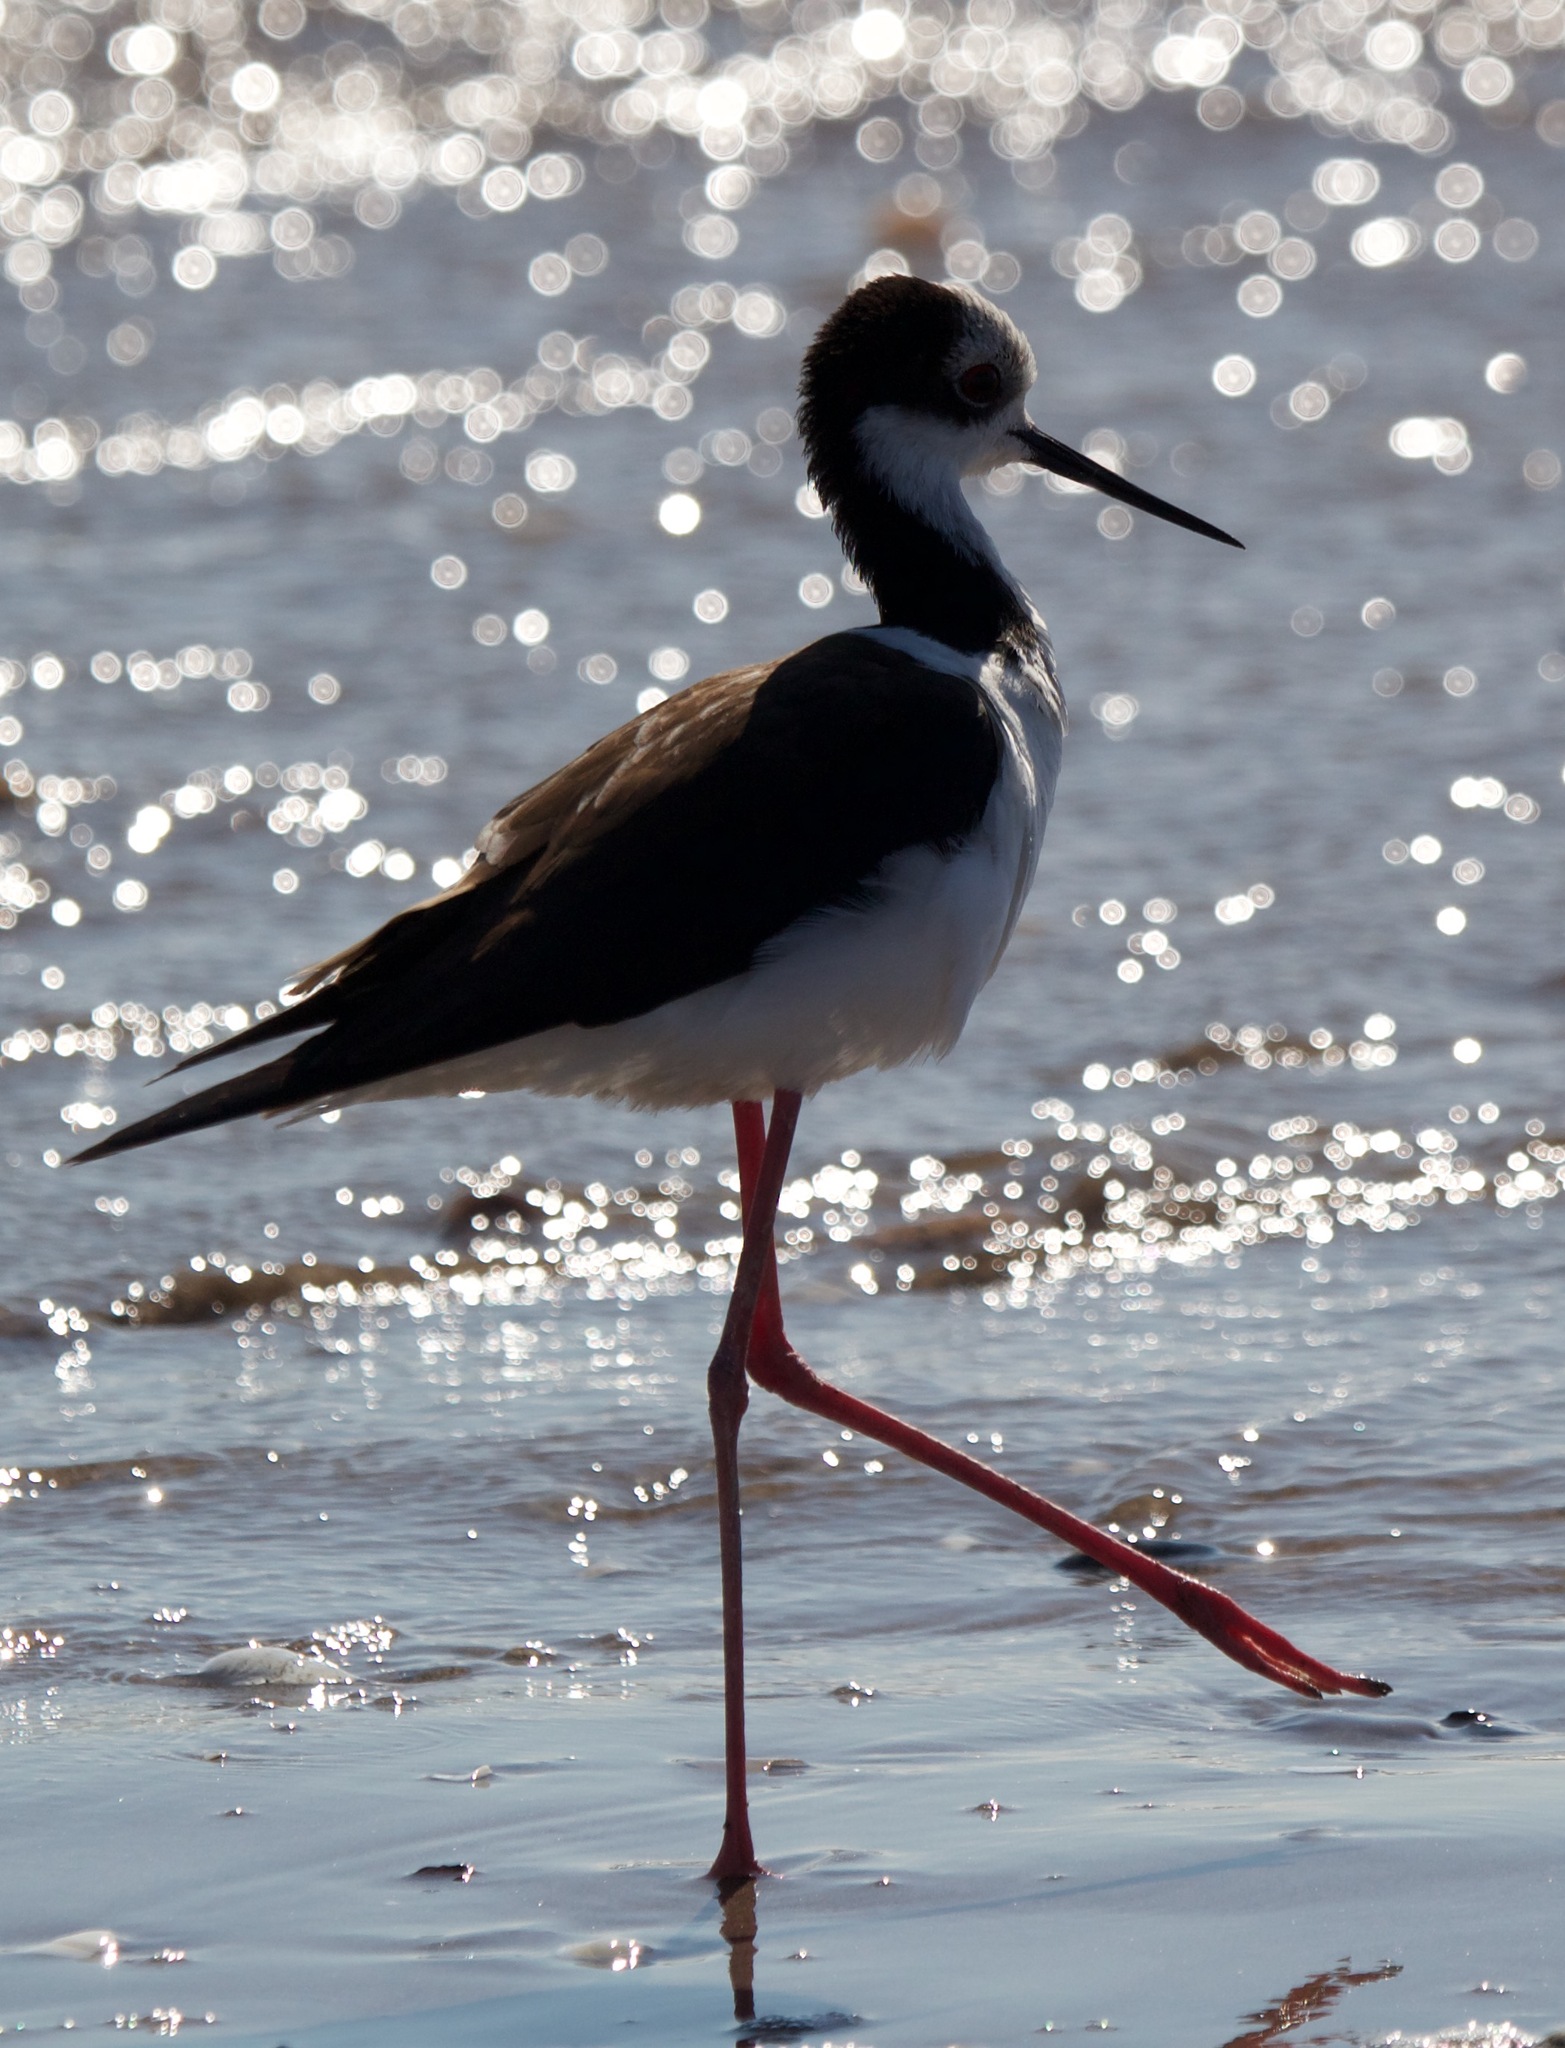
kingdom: Animalia
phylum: Chordata
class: Aves
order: Charadriiformes
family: Recurvirostridae
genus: Himantopus
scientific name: Himantopus mexicanus
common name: Black-necked stilt
